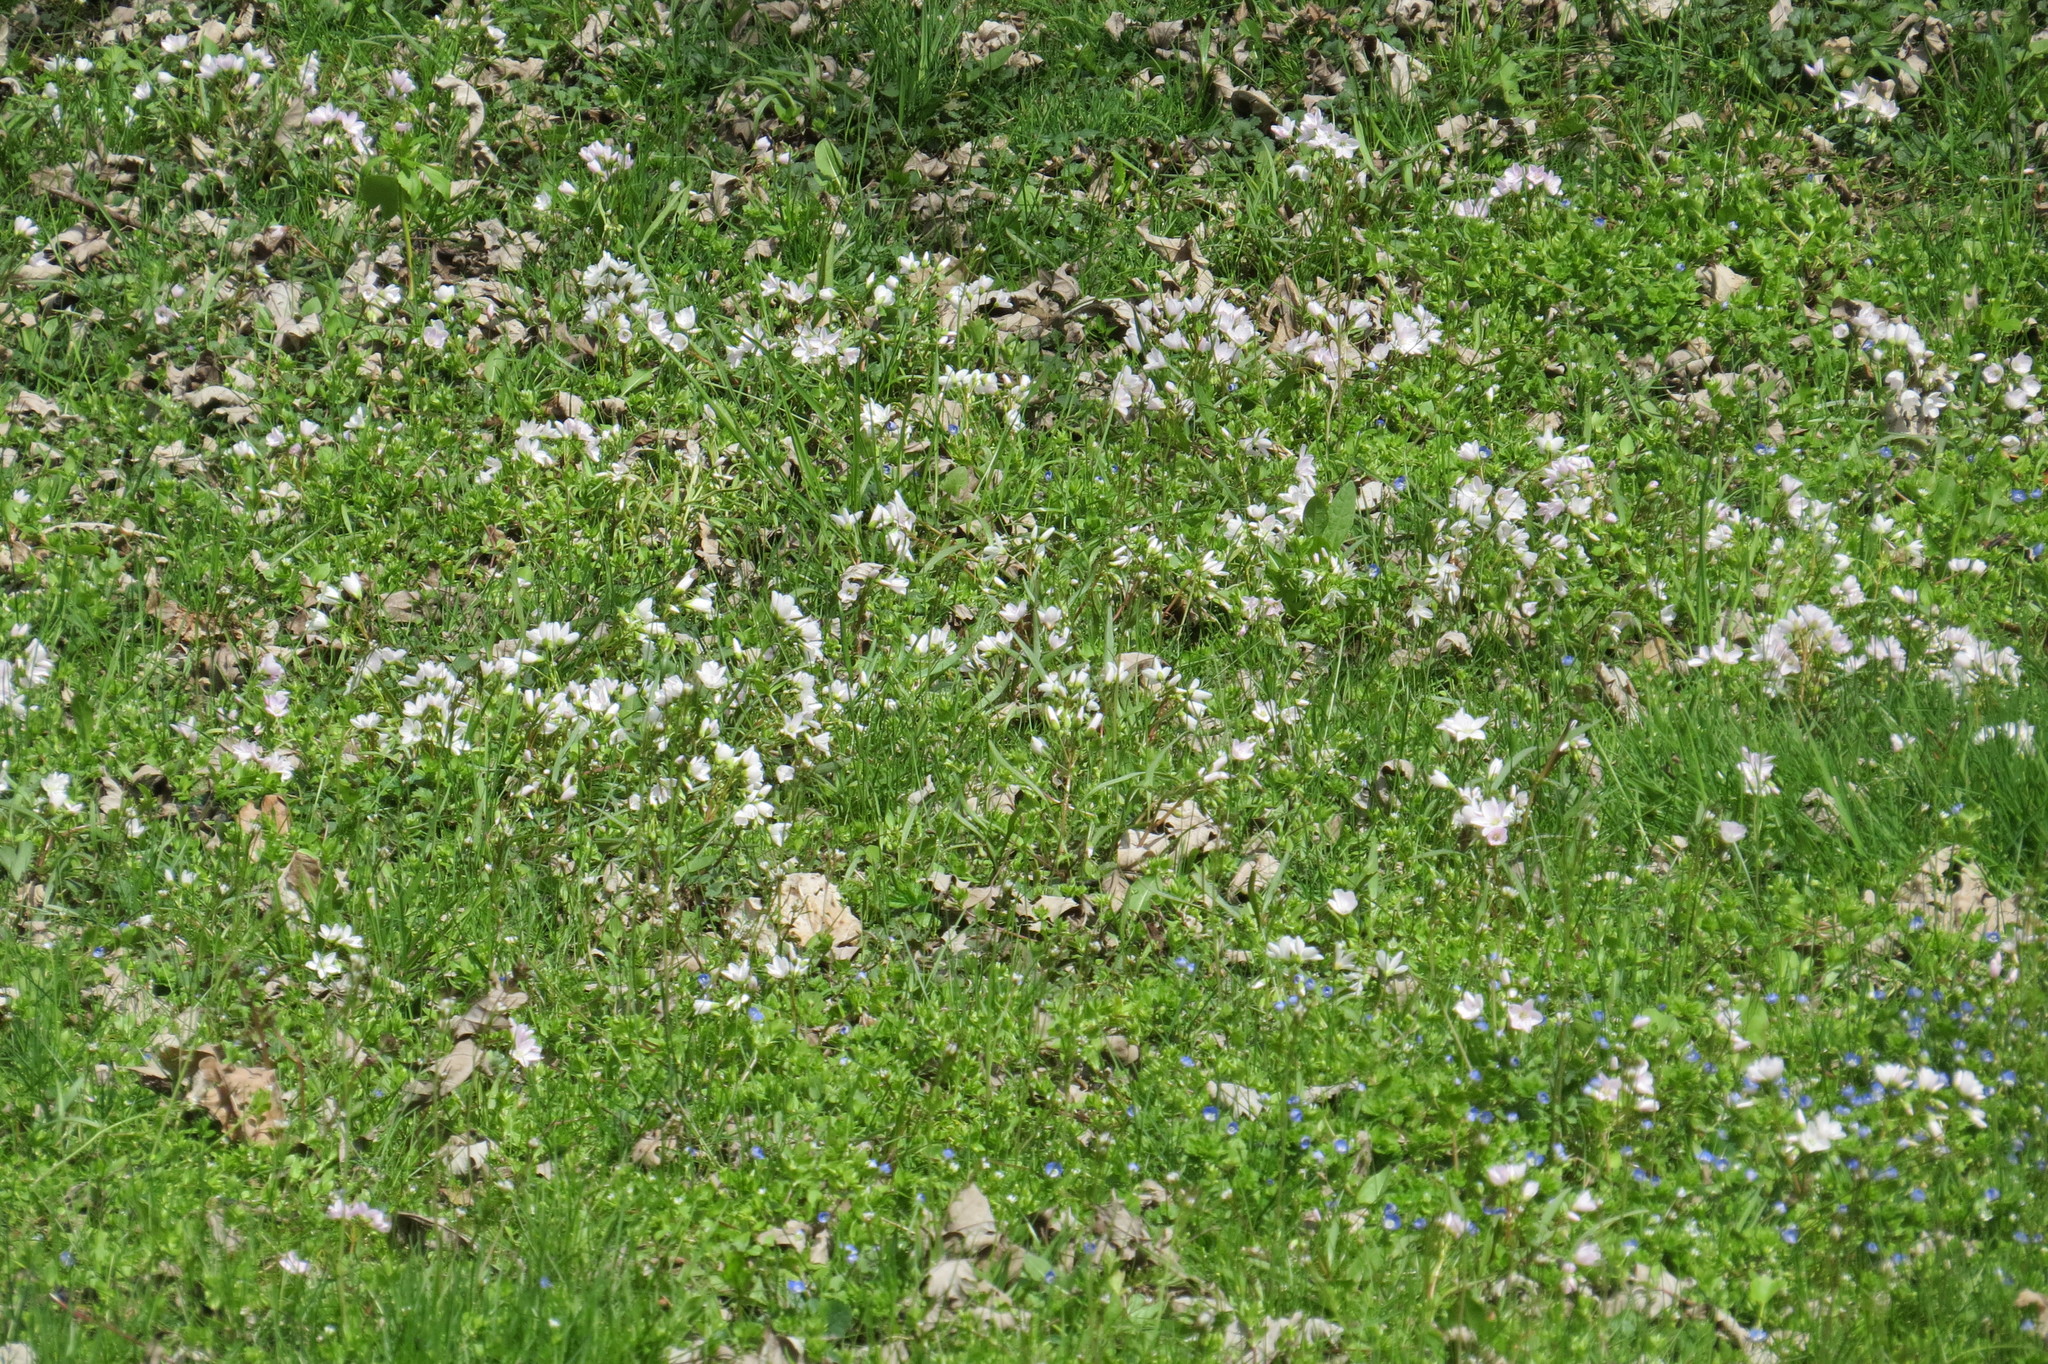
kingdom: Plantae
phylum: Tracheophyta
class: Magnoliopsida
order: Caryophyllales
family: Montiaceae
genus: Claytonia
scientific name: Claytonia virginica
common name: Virginia springbeauty
